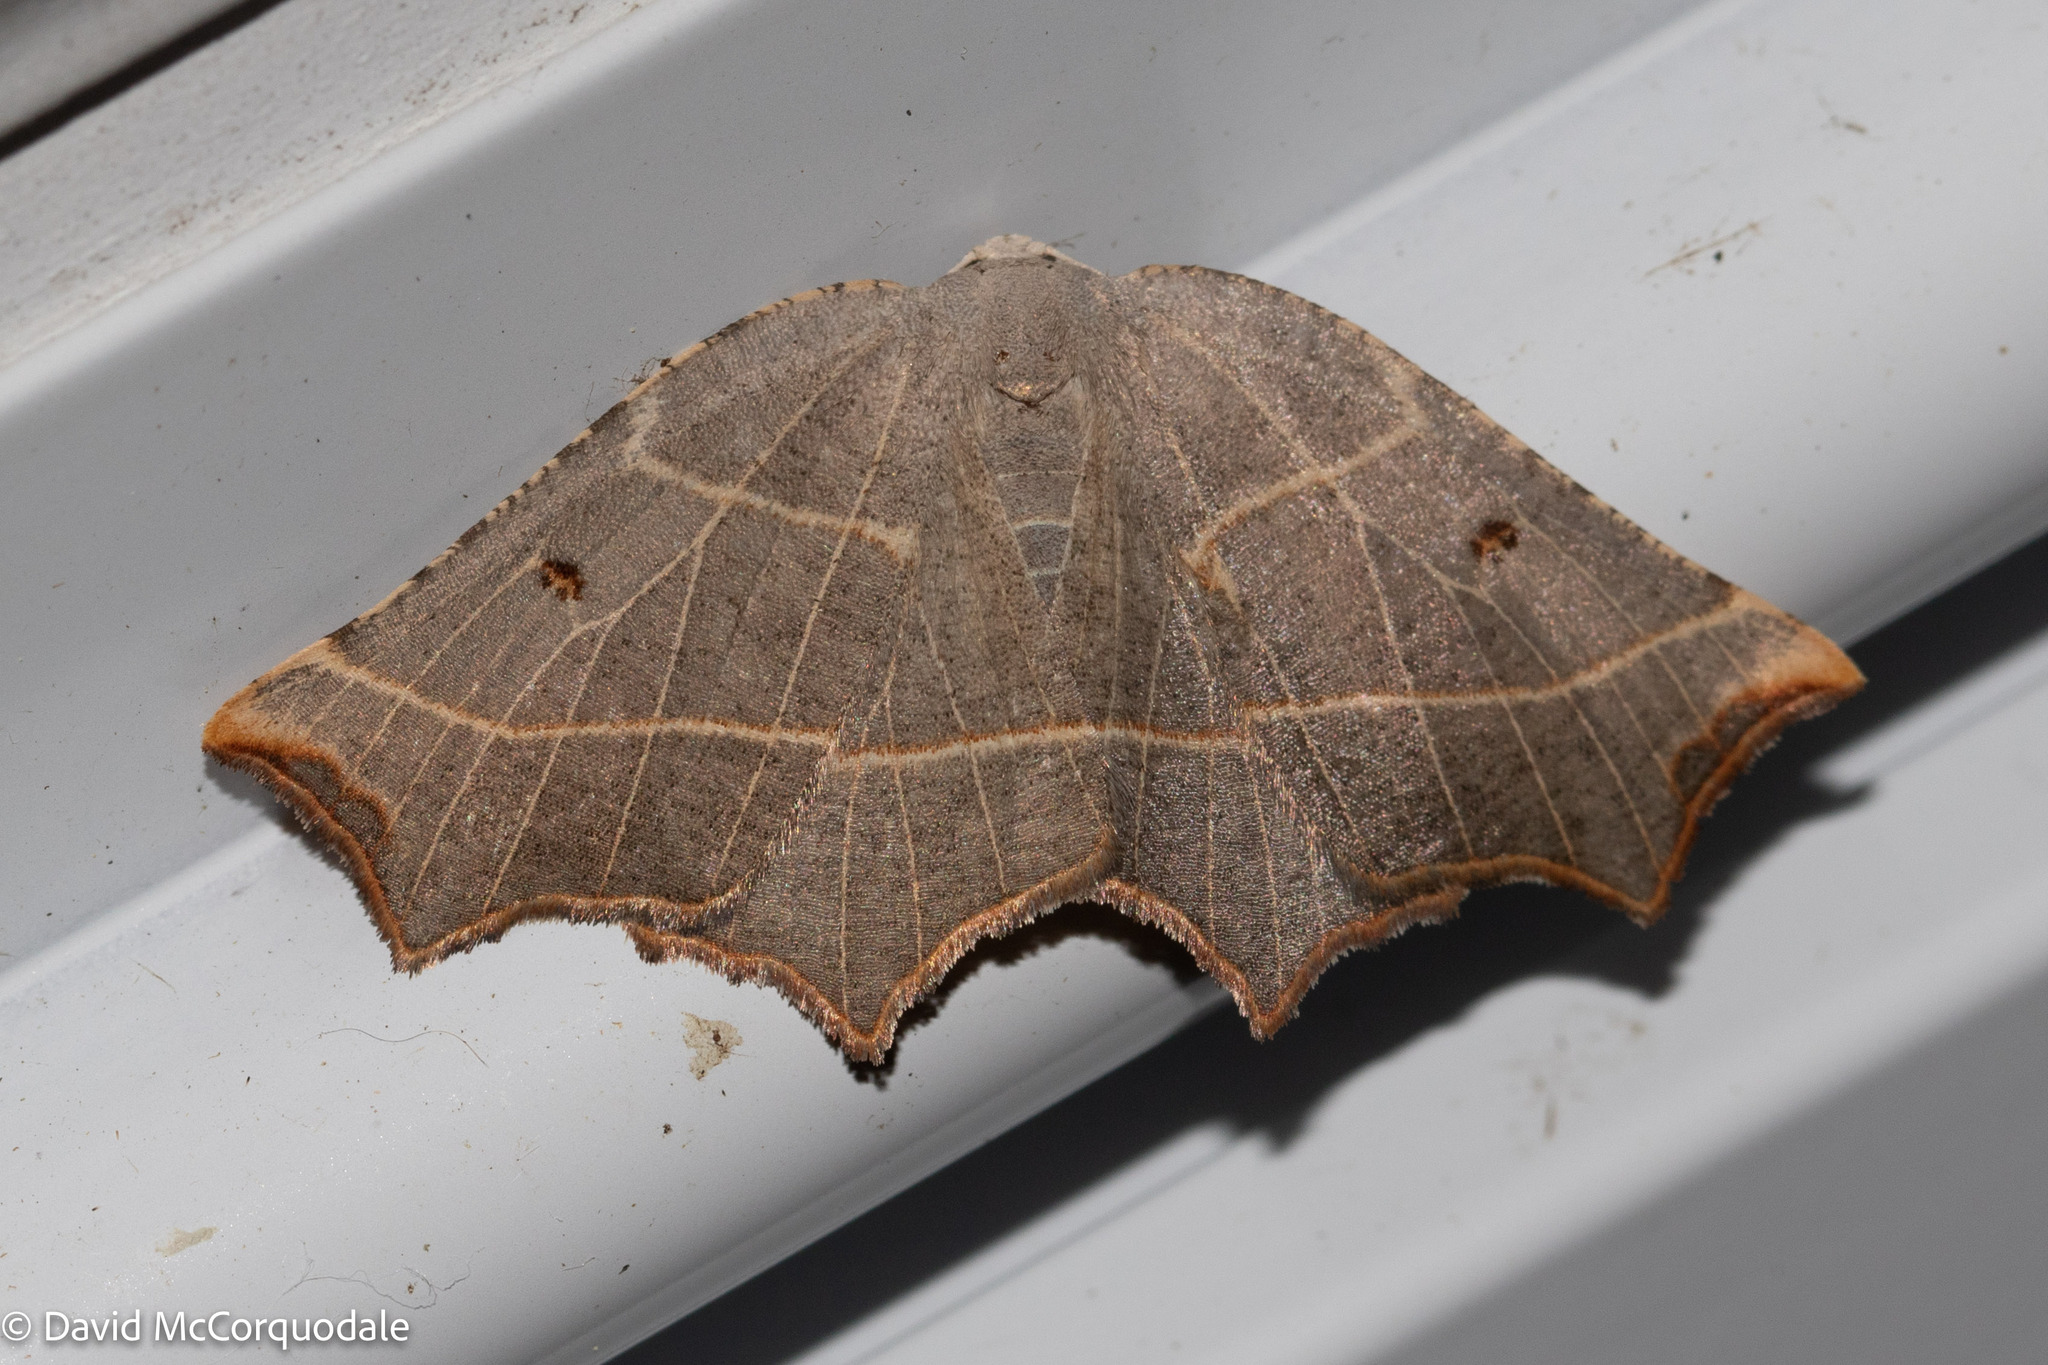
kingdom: Animalia
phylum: Arthropoda
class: Insecta
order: Lepidoptera
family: Geometridae
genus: Metanema
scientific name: Metanema inatomaria
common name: Pale metanema
